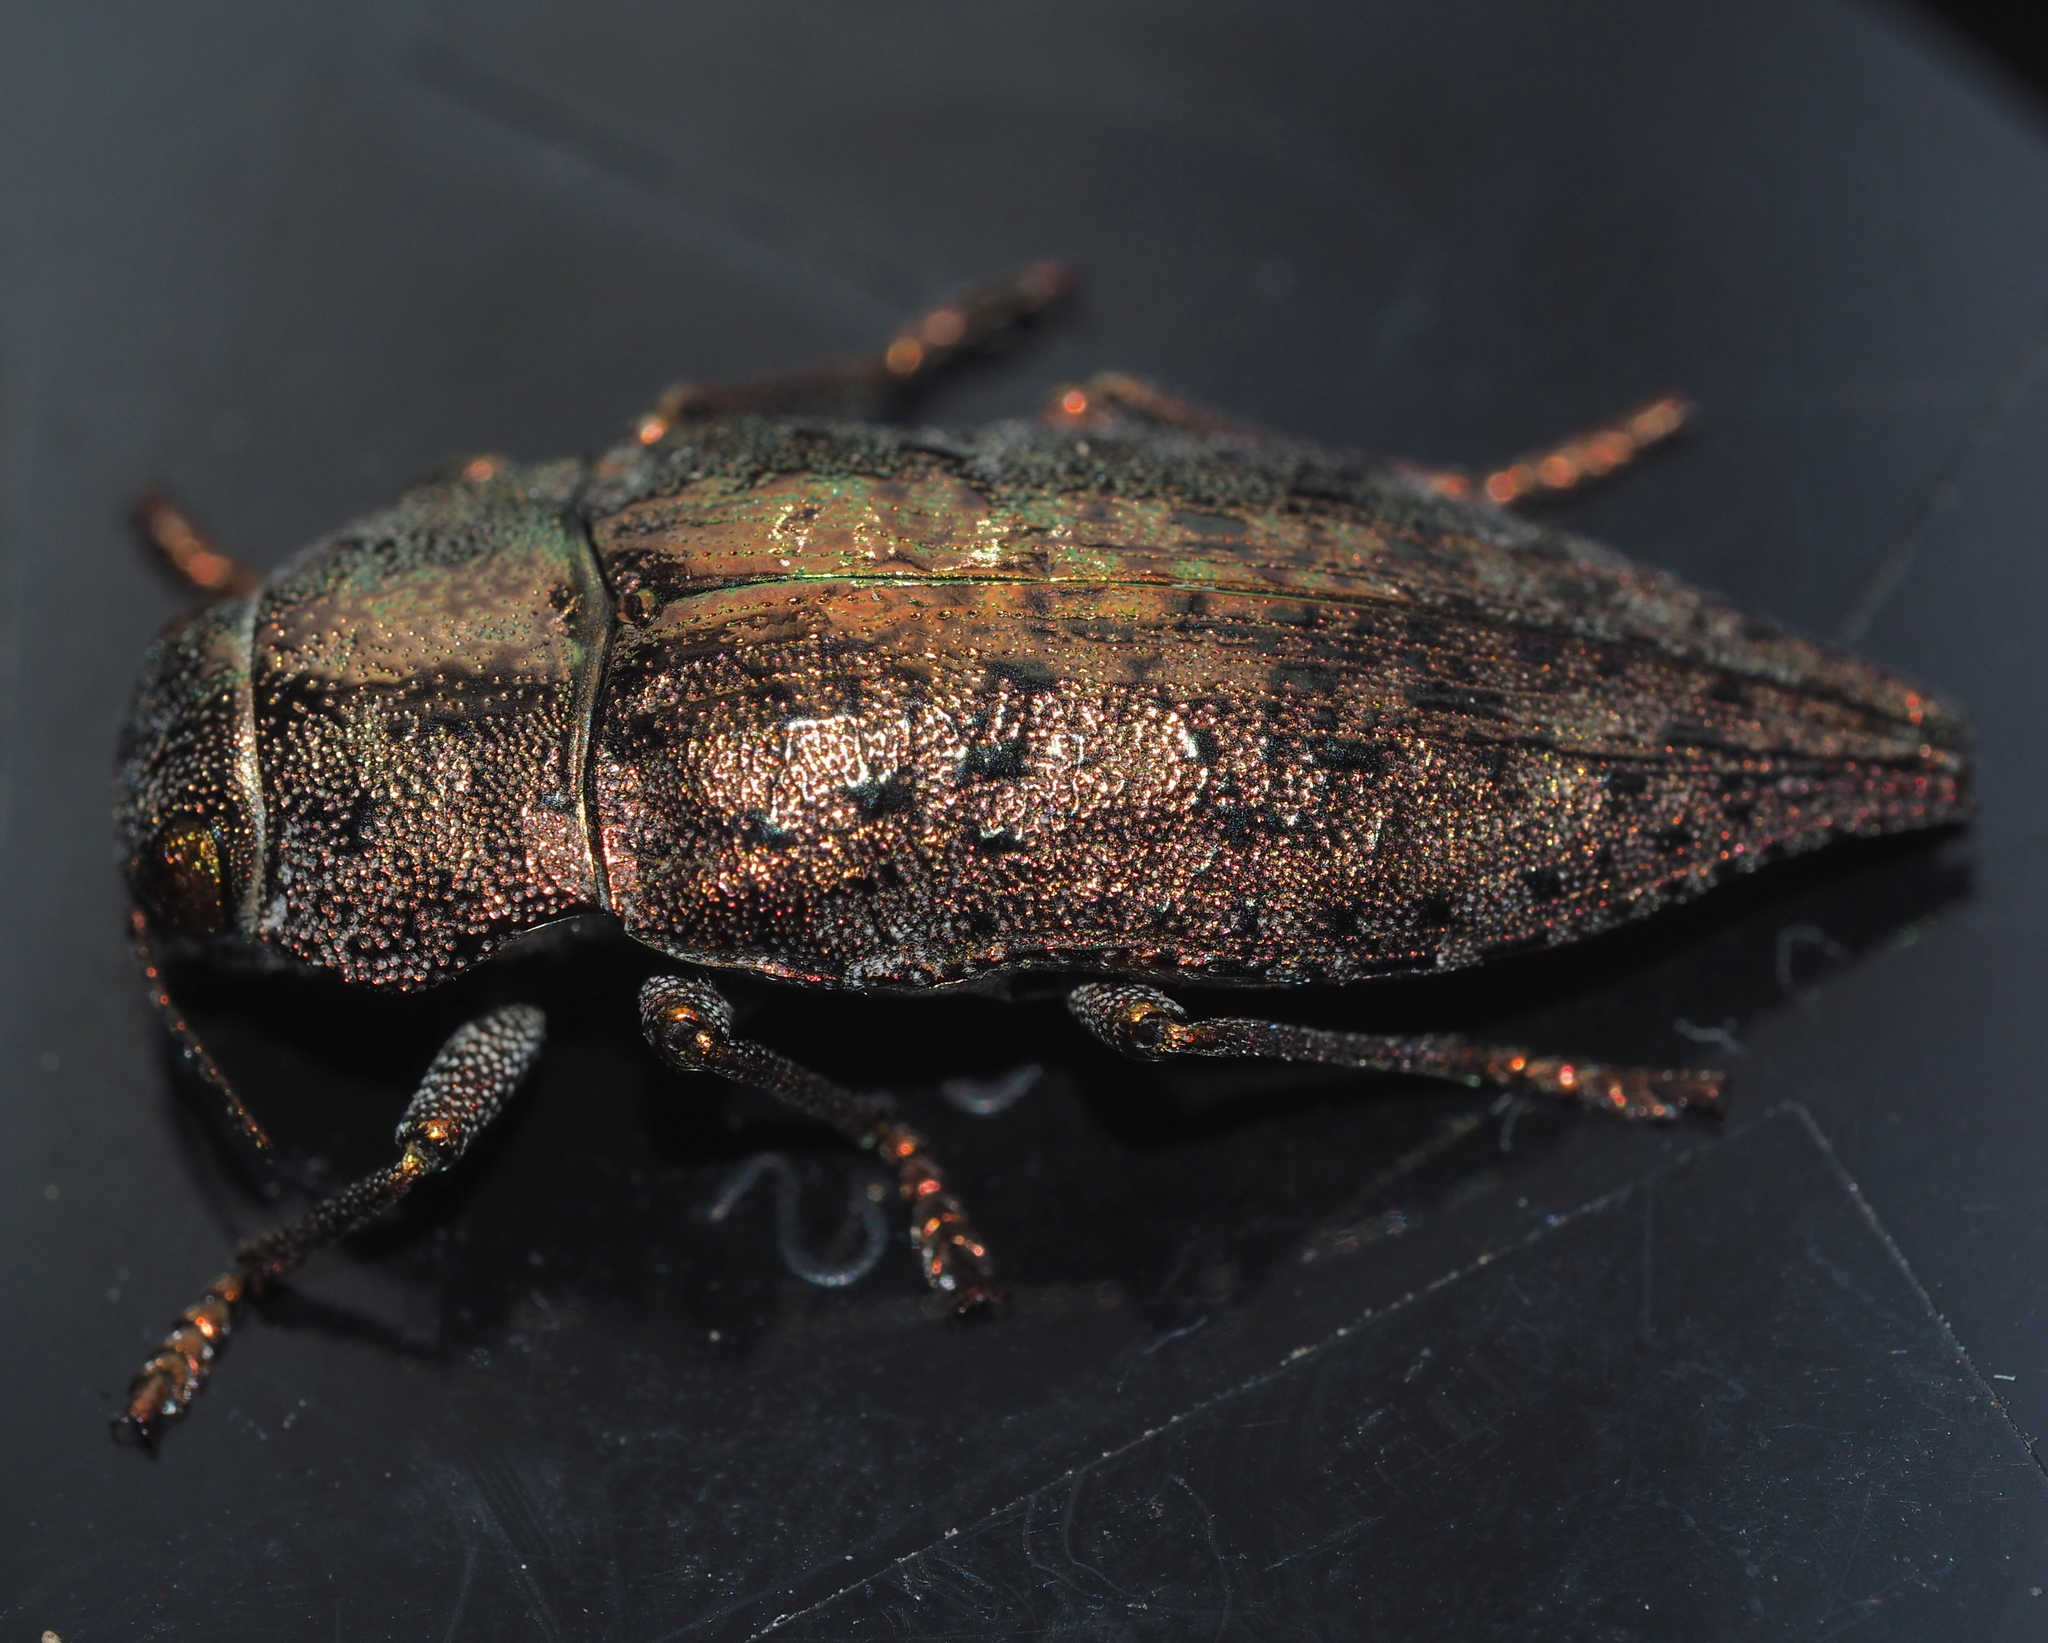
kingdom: Animalia
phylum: Arthropoda
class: Insecta
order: Coleoptera
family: Buprestidae
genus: Dicerca
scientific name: Dicerca berolinensis
